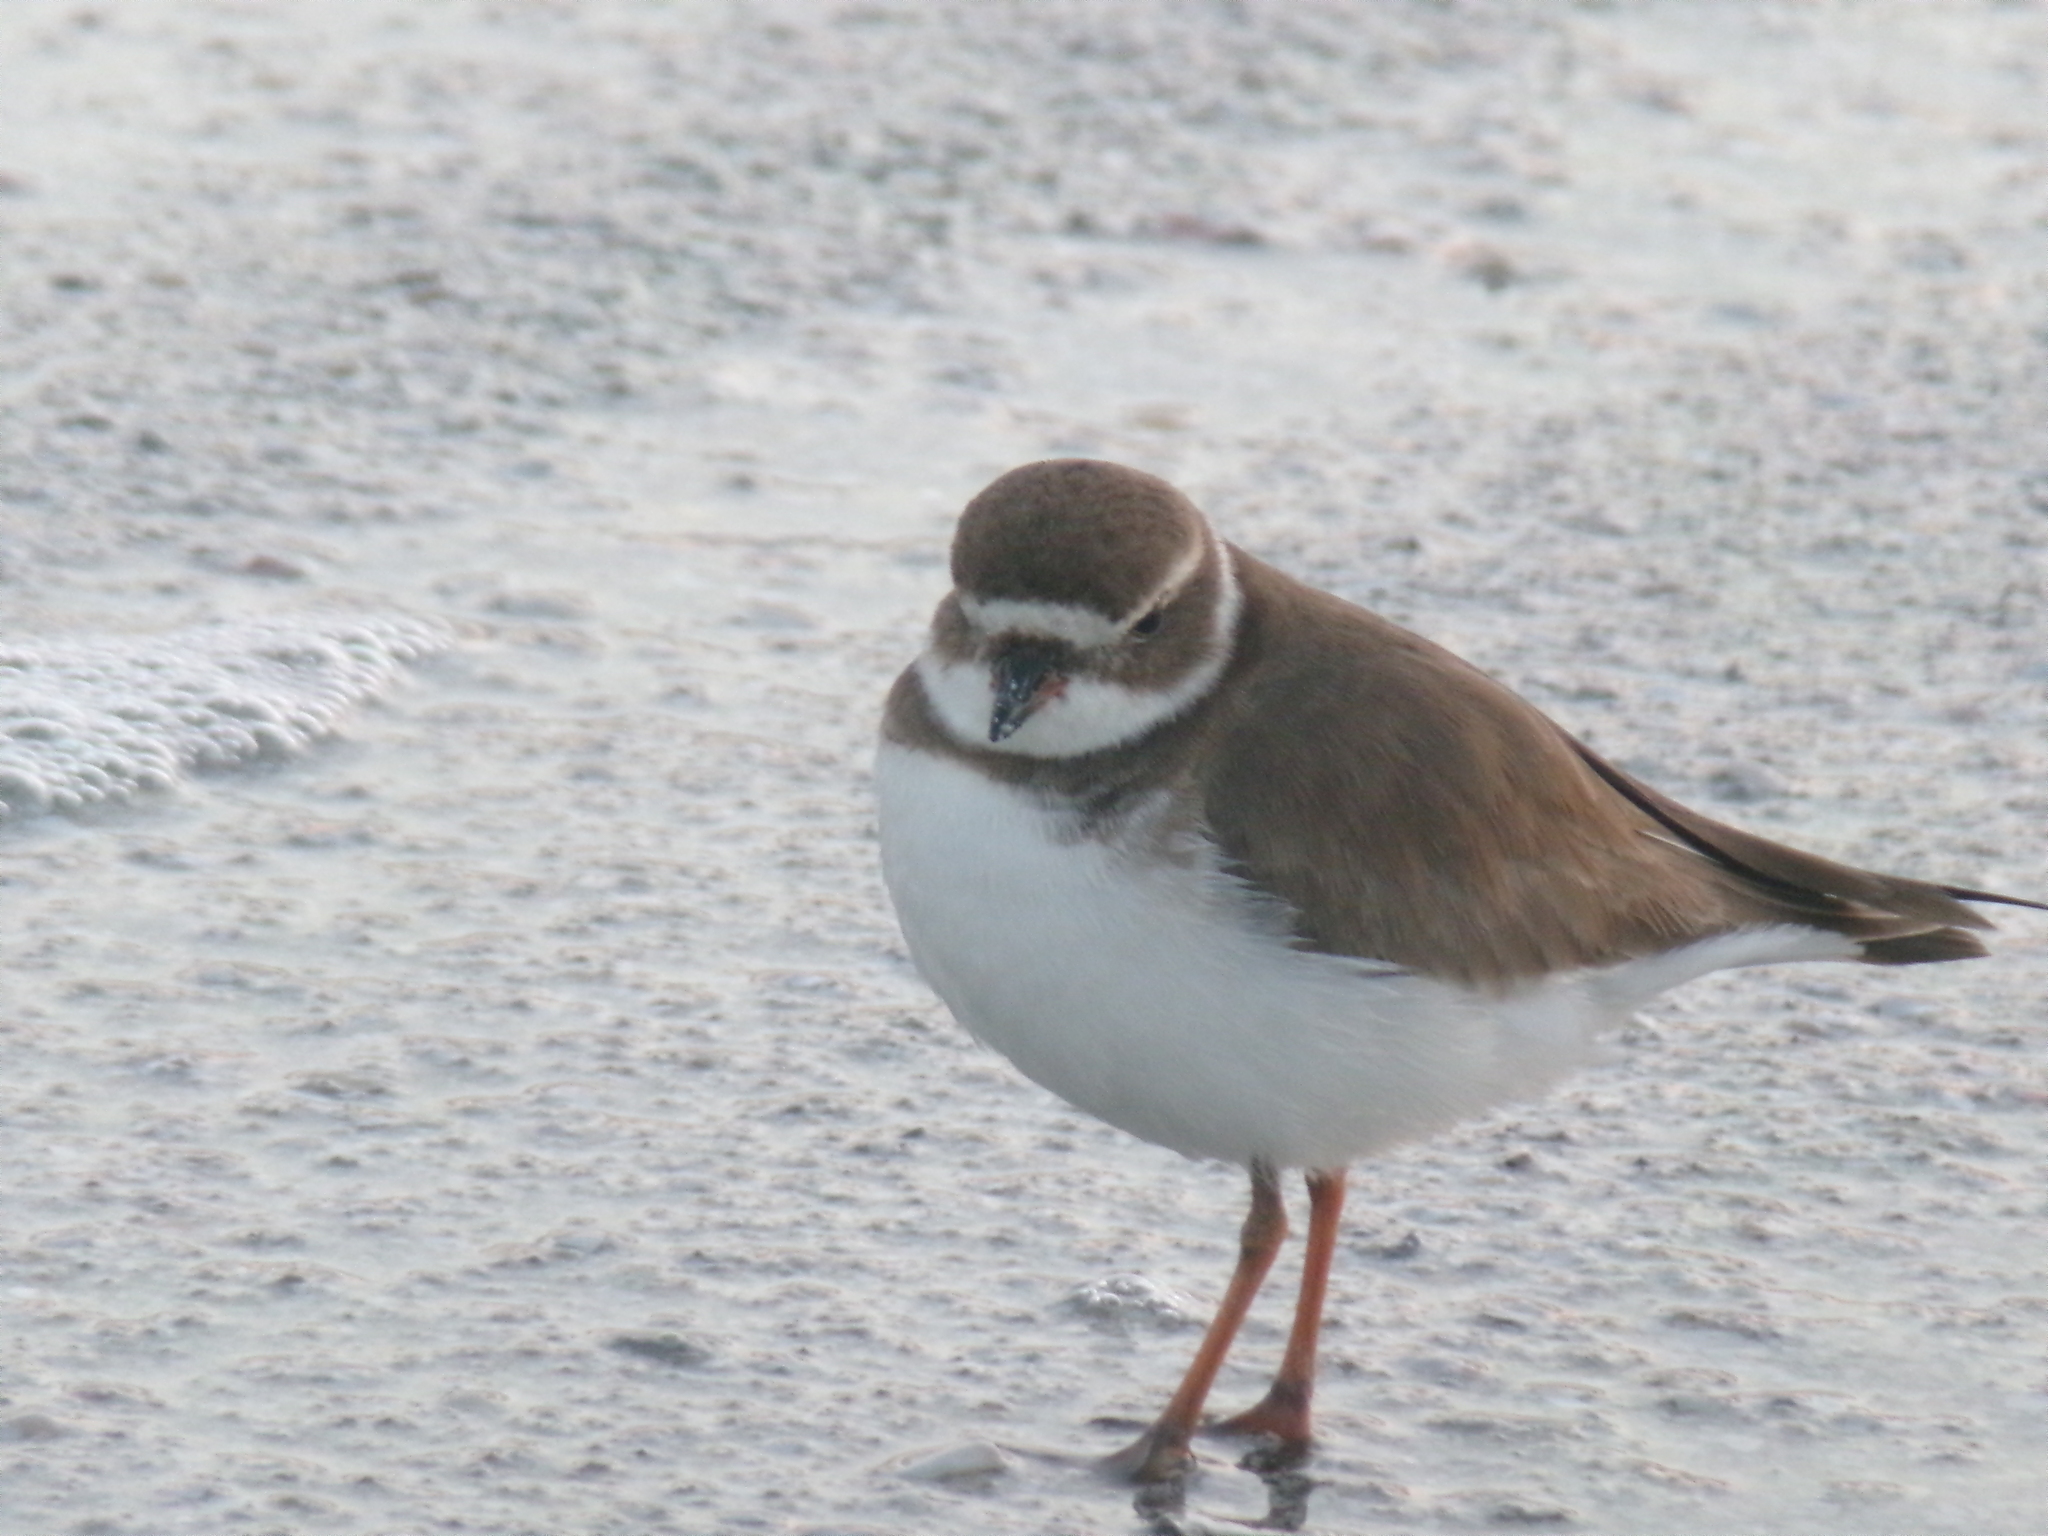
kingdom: Animalia
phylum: Chordata
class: Aves
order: Charadriiformes
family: Charadriidae
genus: Charadrius
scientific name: Charadrius semipalmatus
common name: Semipalmated plover
